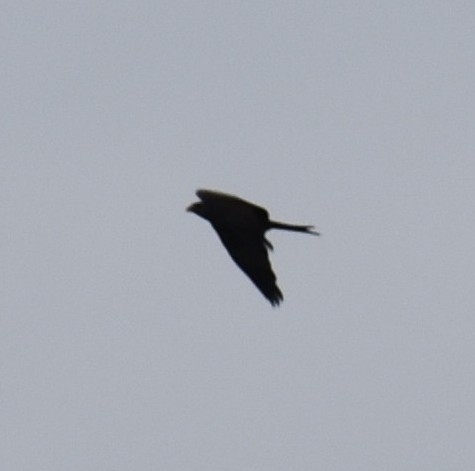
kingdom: Animalia
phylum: Chordata
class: Aves
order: Accipitriformes
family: Accipitridae
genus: Milvus
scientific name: Milvus migrans
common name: Black kite
